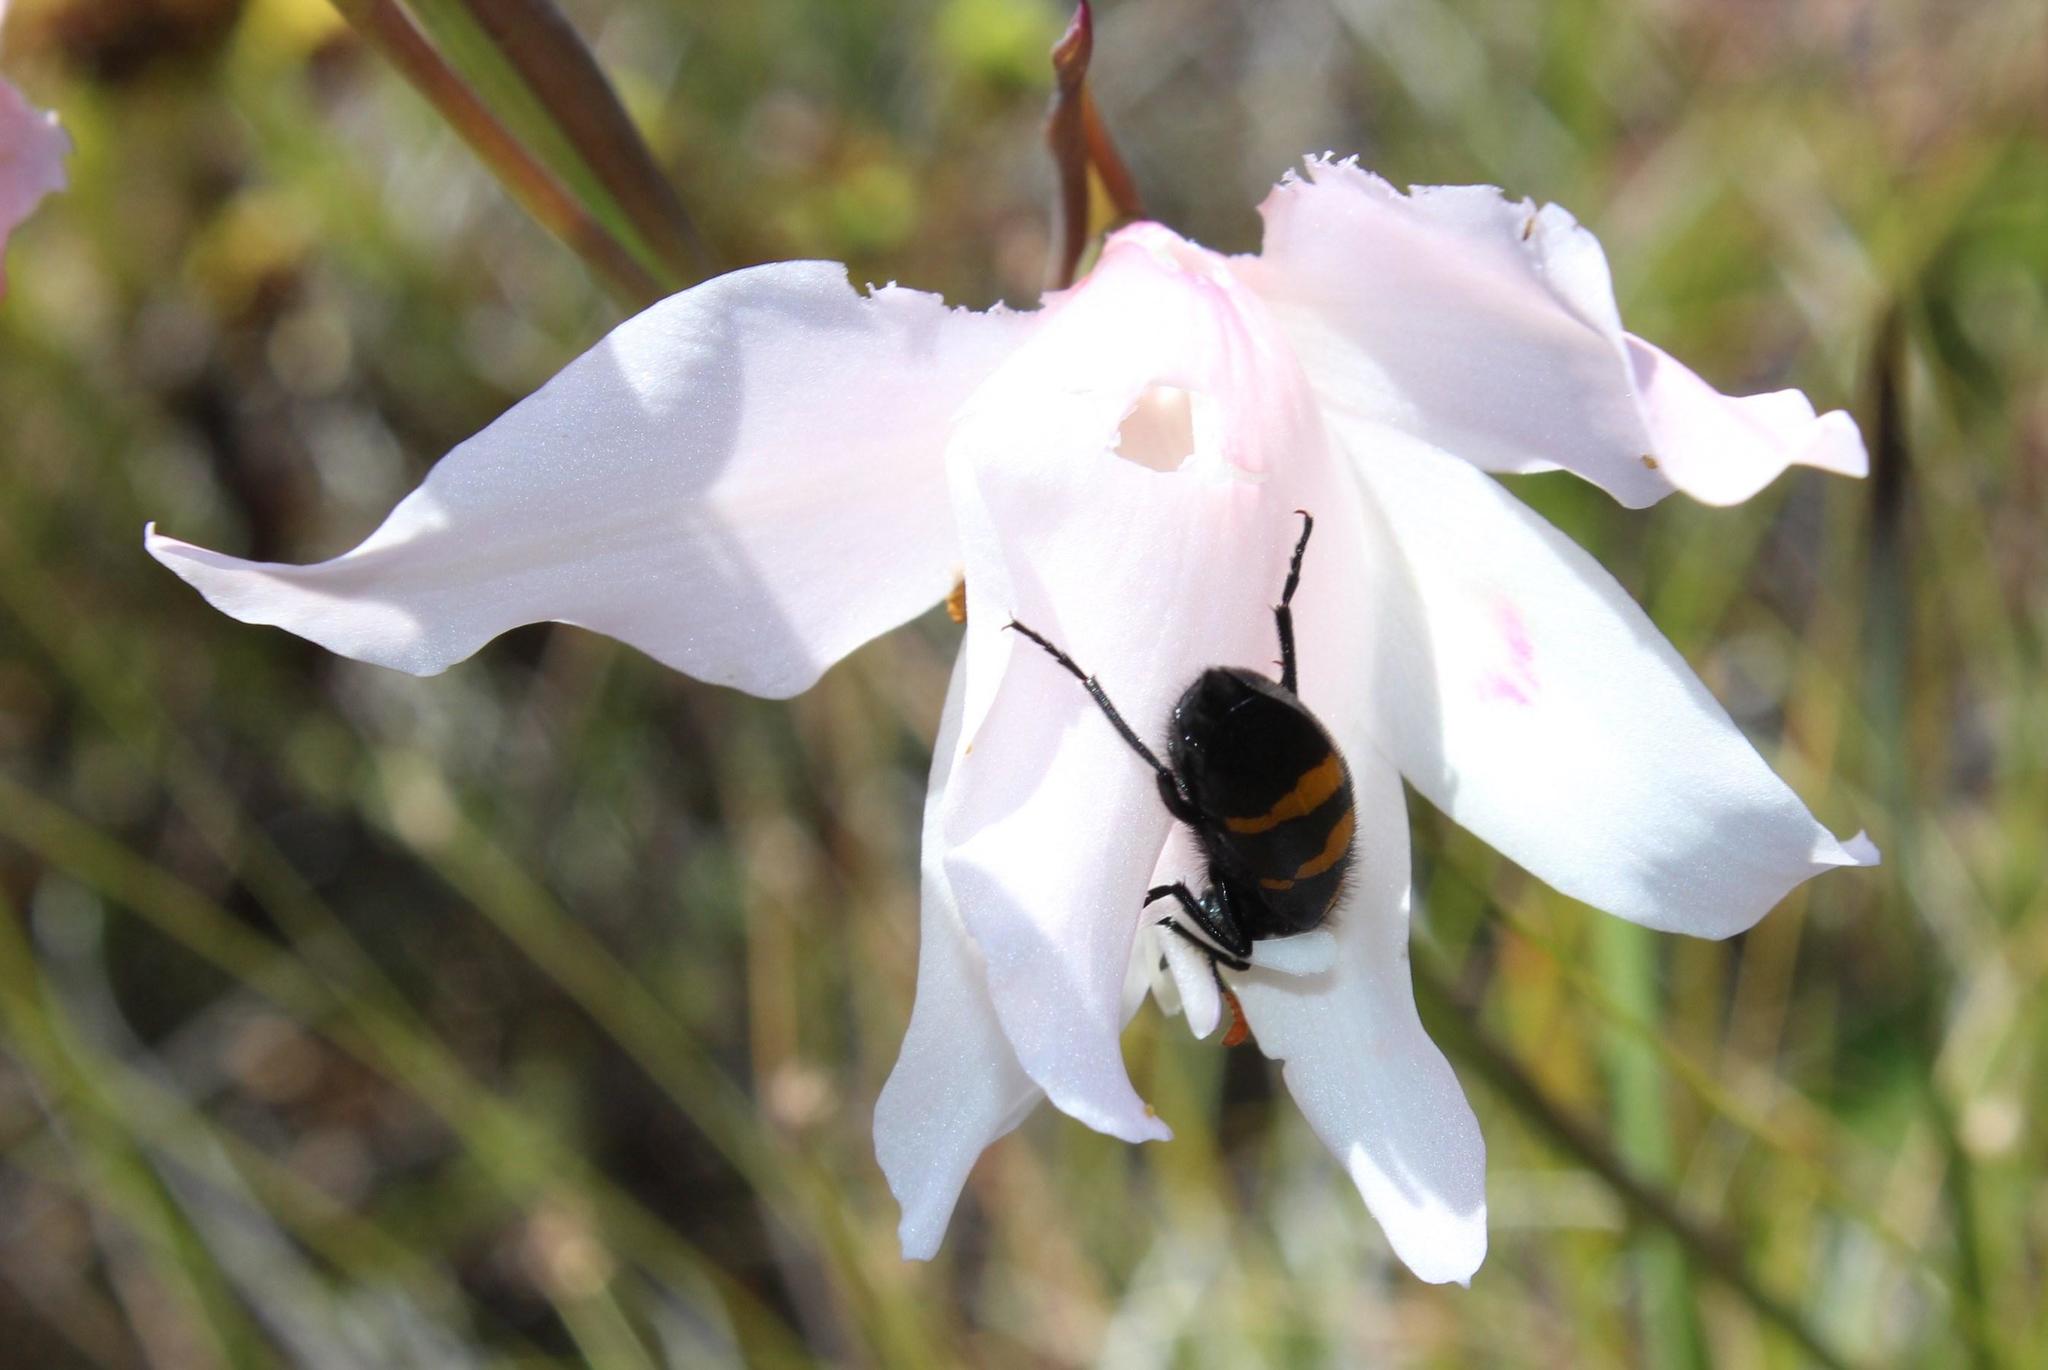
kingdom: Animalia
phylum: Arthropoda
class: Insecta
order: Coleoptera
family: Meloidae
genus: Meloe
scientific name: Meloe lunata
